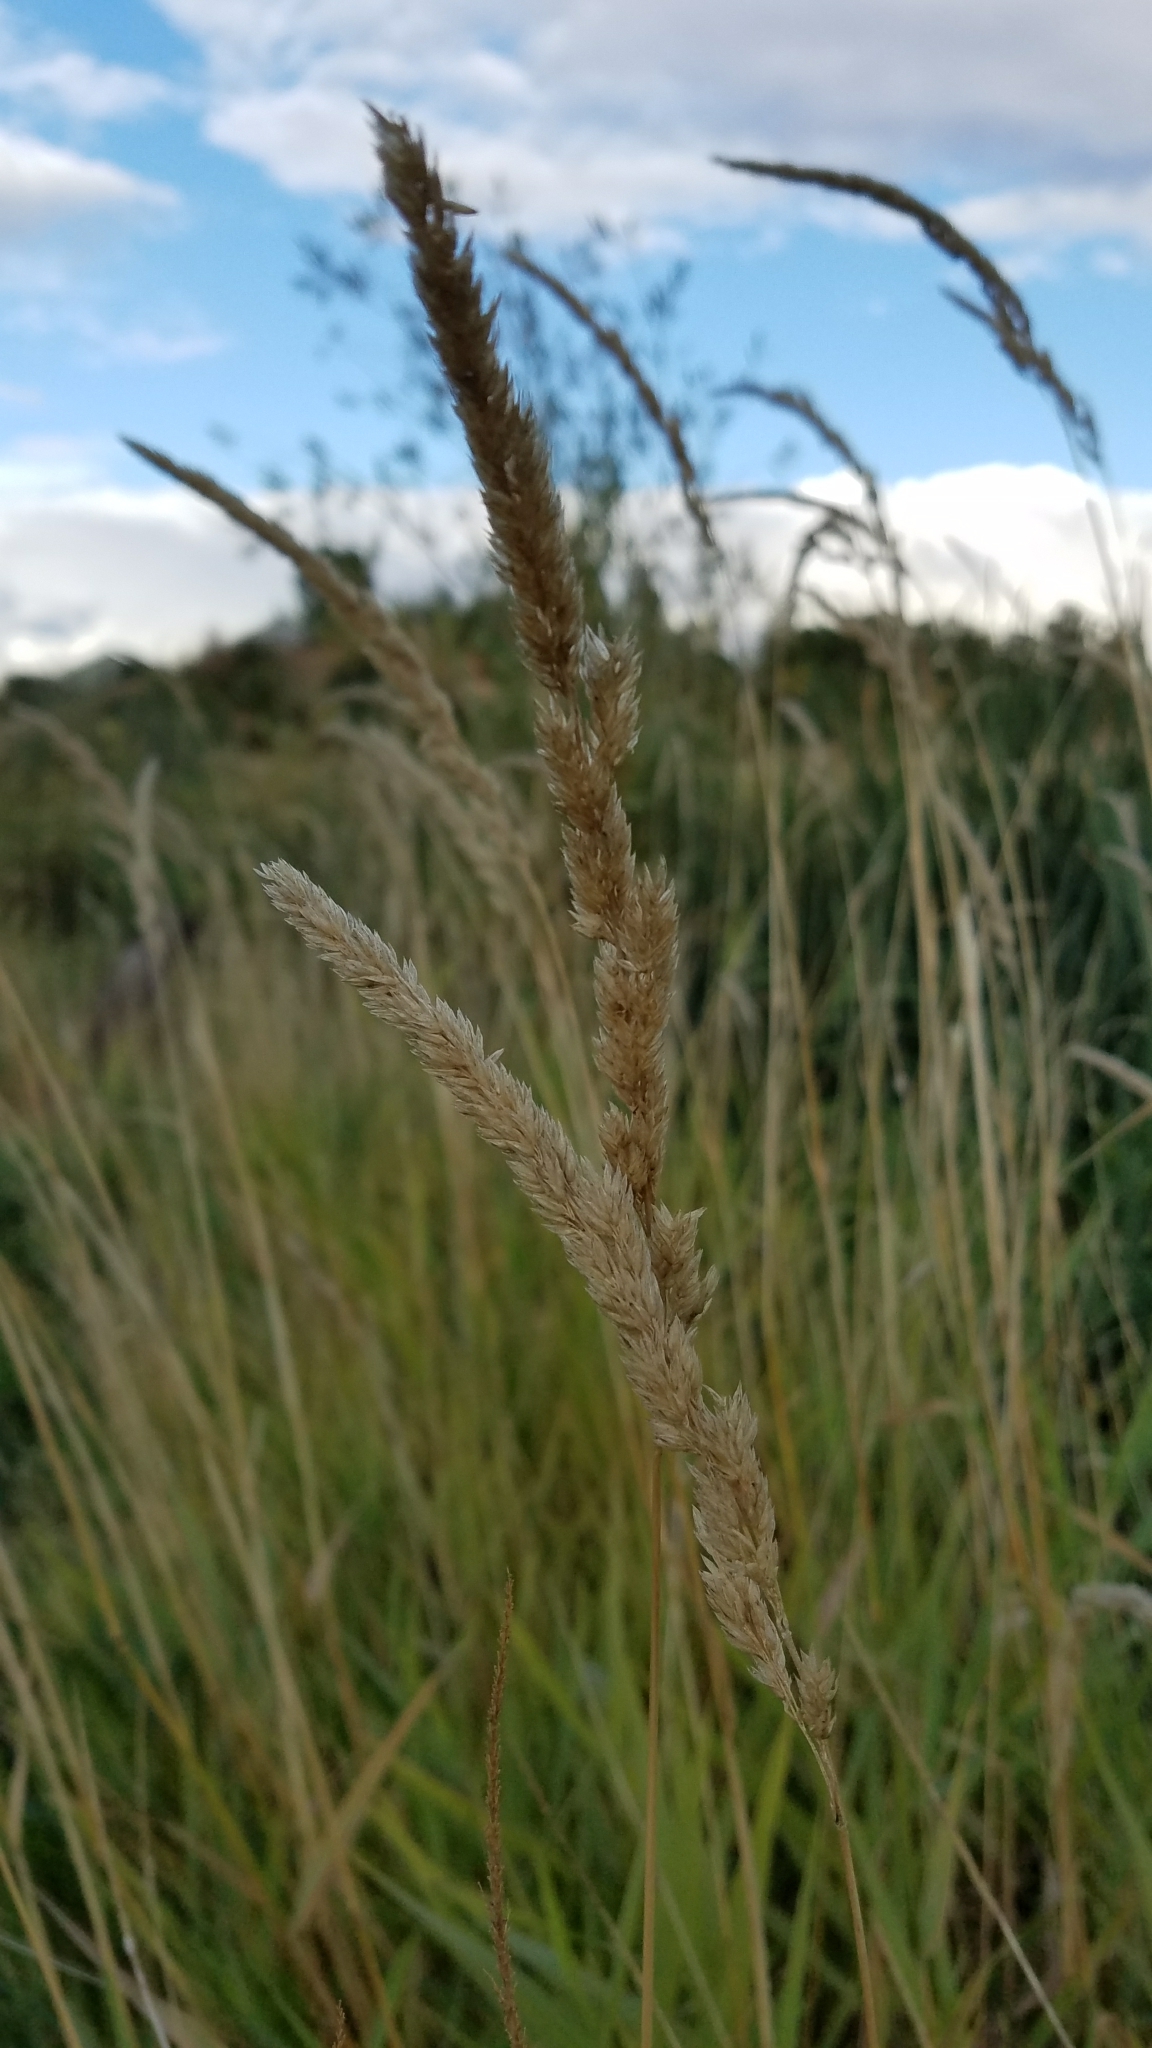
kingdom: Plantae
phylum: Tracheophyta
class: Liliopsida
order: Poales
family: Poaceae
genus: Phalaris
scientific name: Phalaris arundinacea
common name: Reed canary-grass
